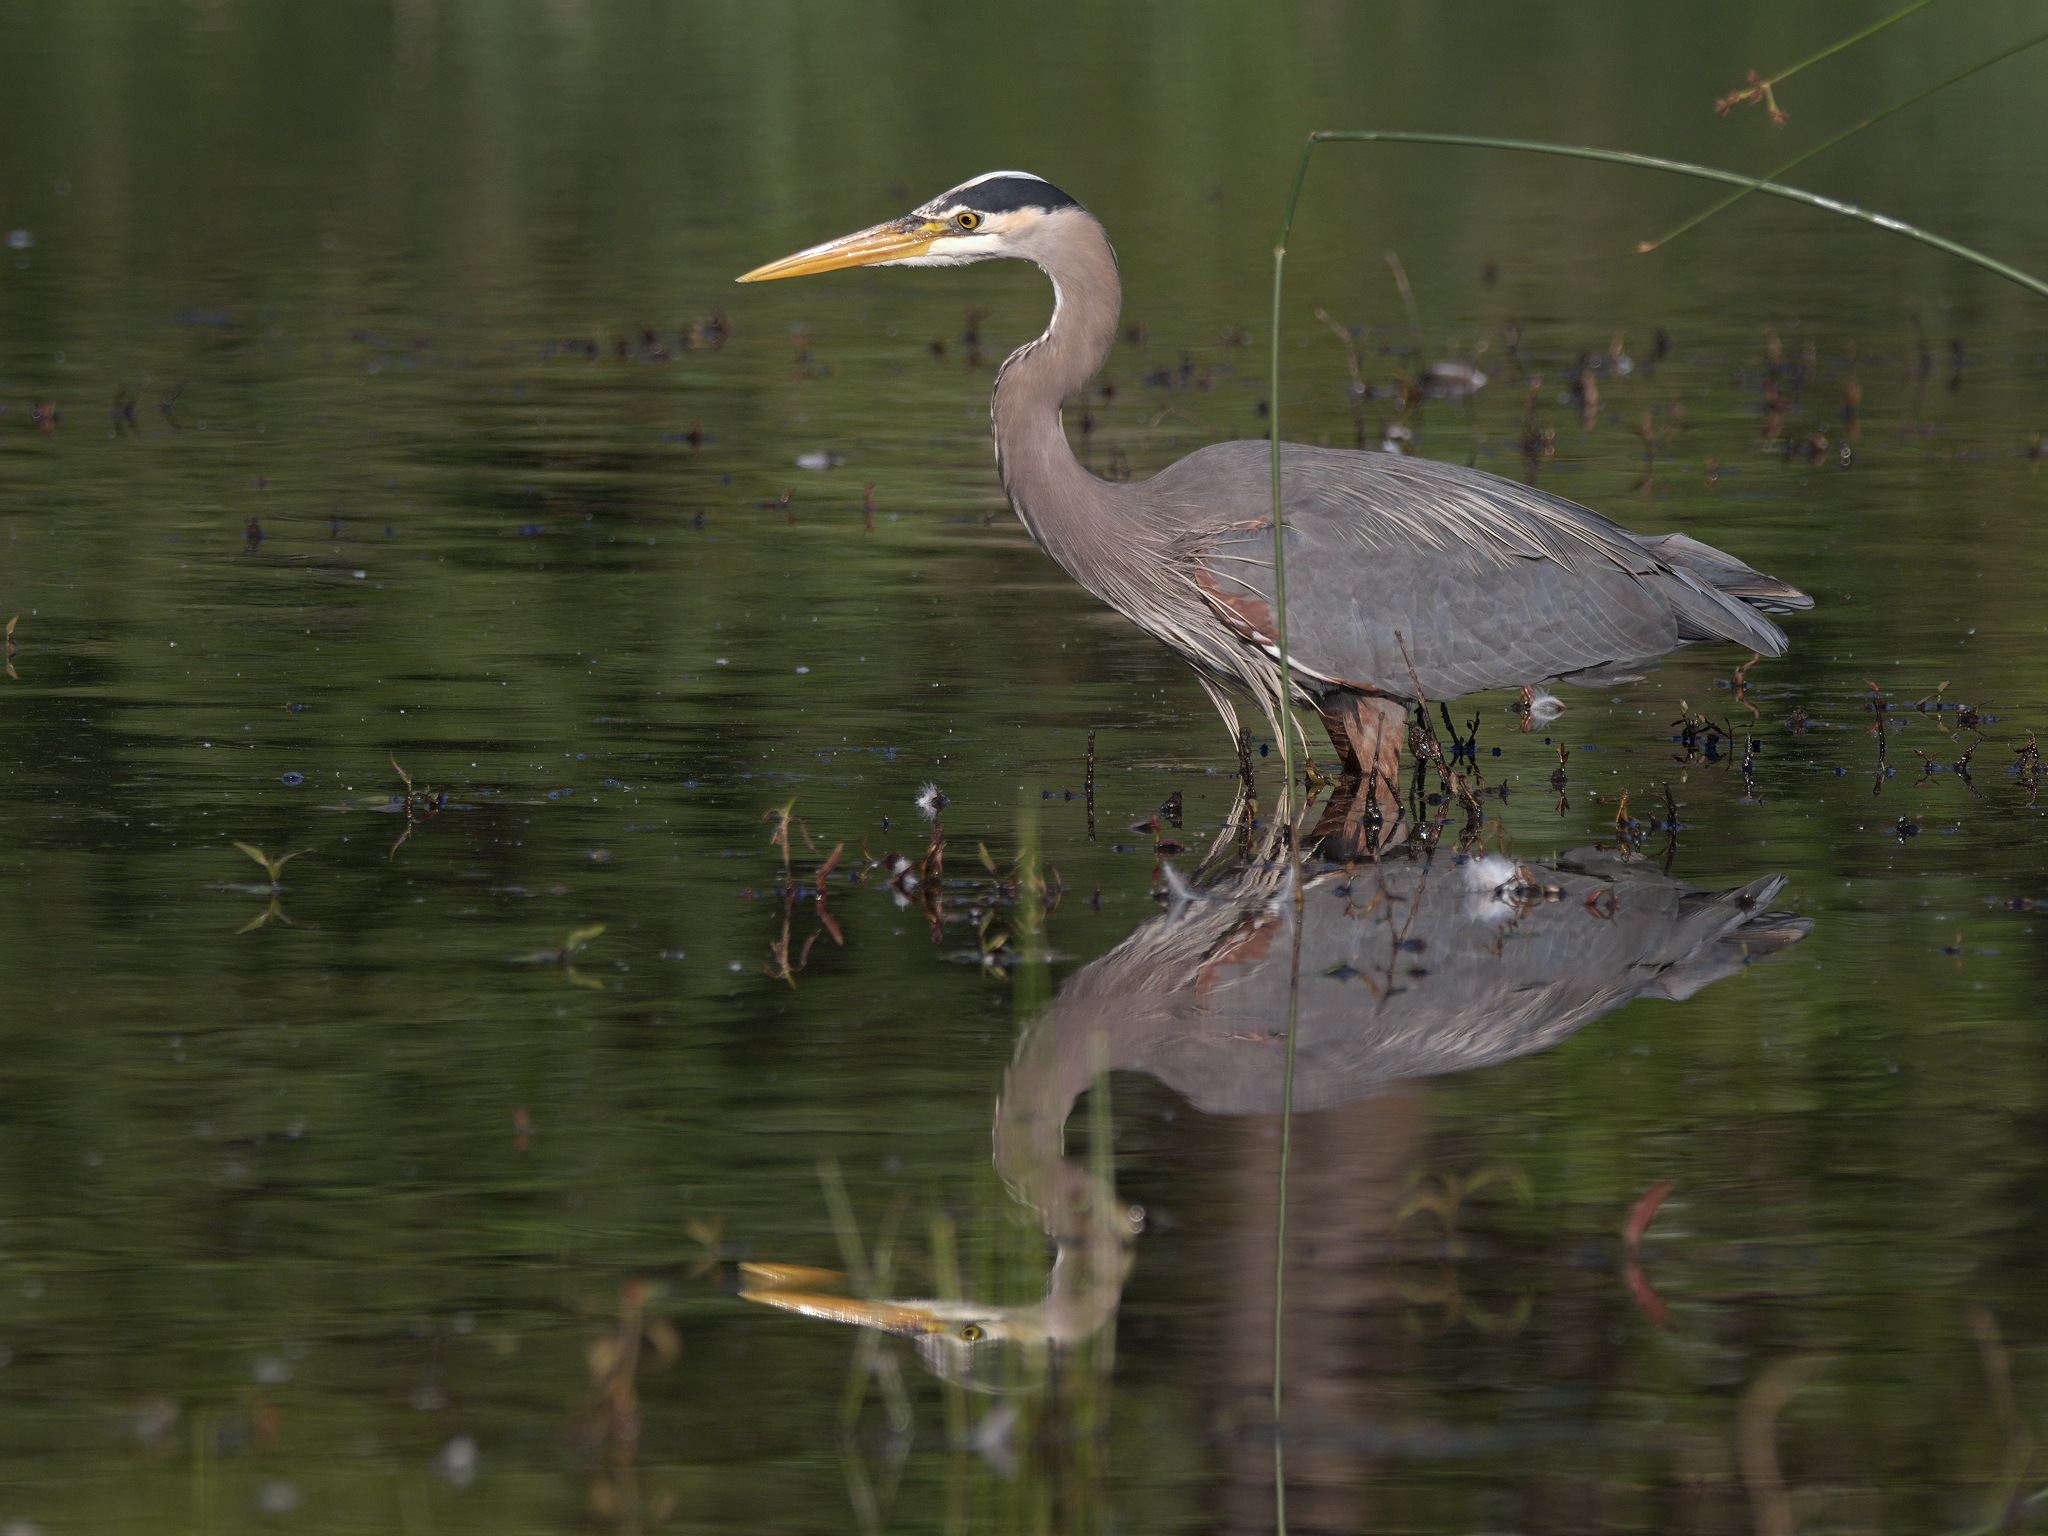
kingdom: Animalia
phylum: Chordata
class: Aves
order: Pelecaniformes
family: Ardeidae
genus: Ardea
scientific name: Ardea herodias
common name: Great blue heron
